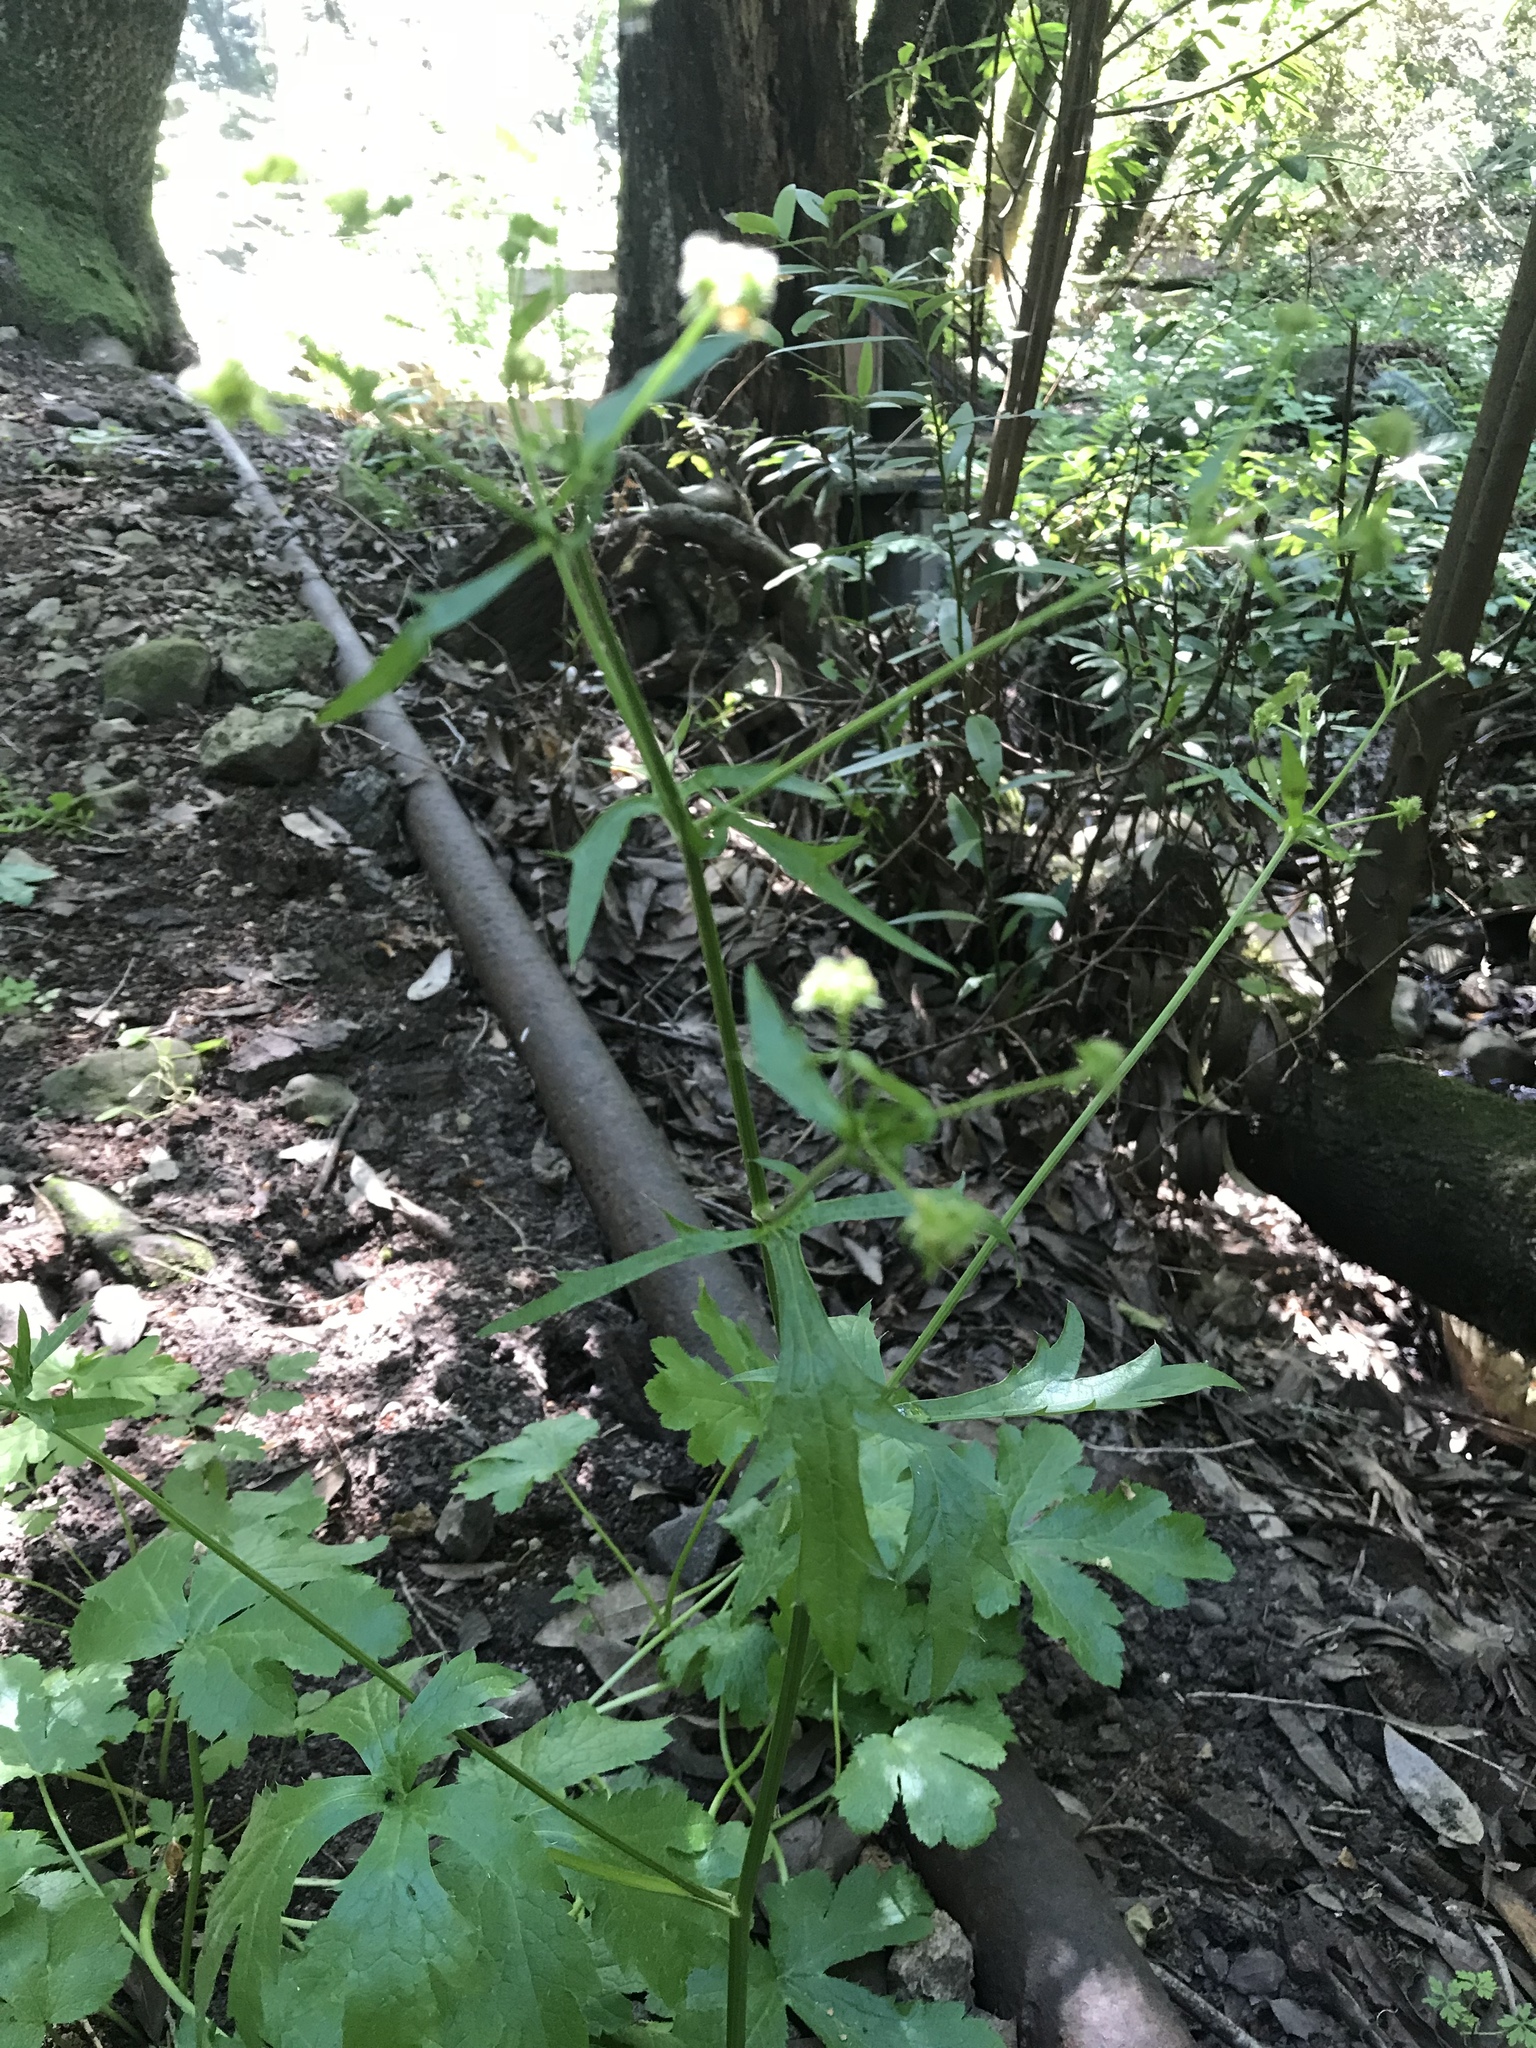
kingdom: Plantae
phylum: Tracheophyta
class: Magnoliopsida
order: Apiales
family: Apiaceae
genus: Sanicula
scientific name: Sanicula crassicaulis
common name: Western snakeroot
